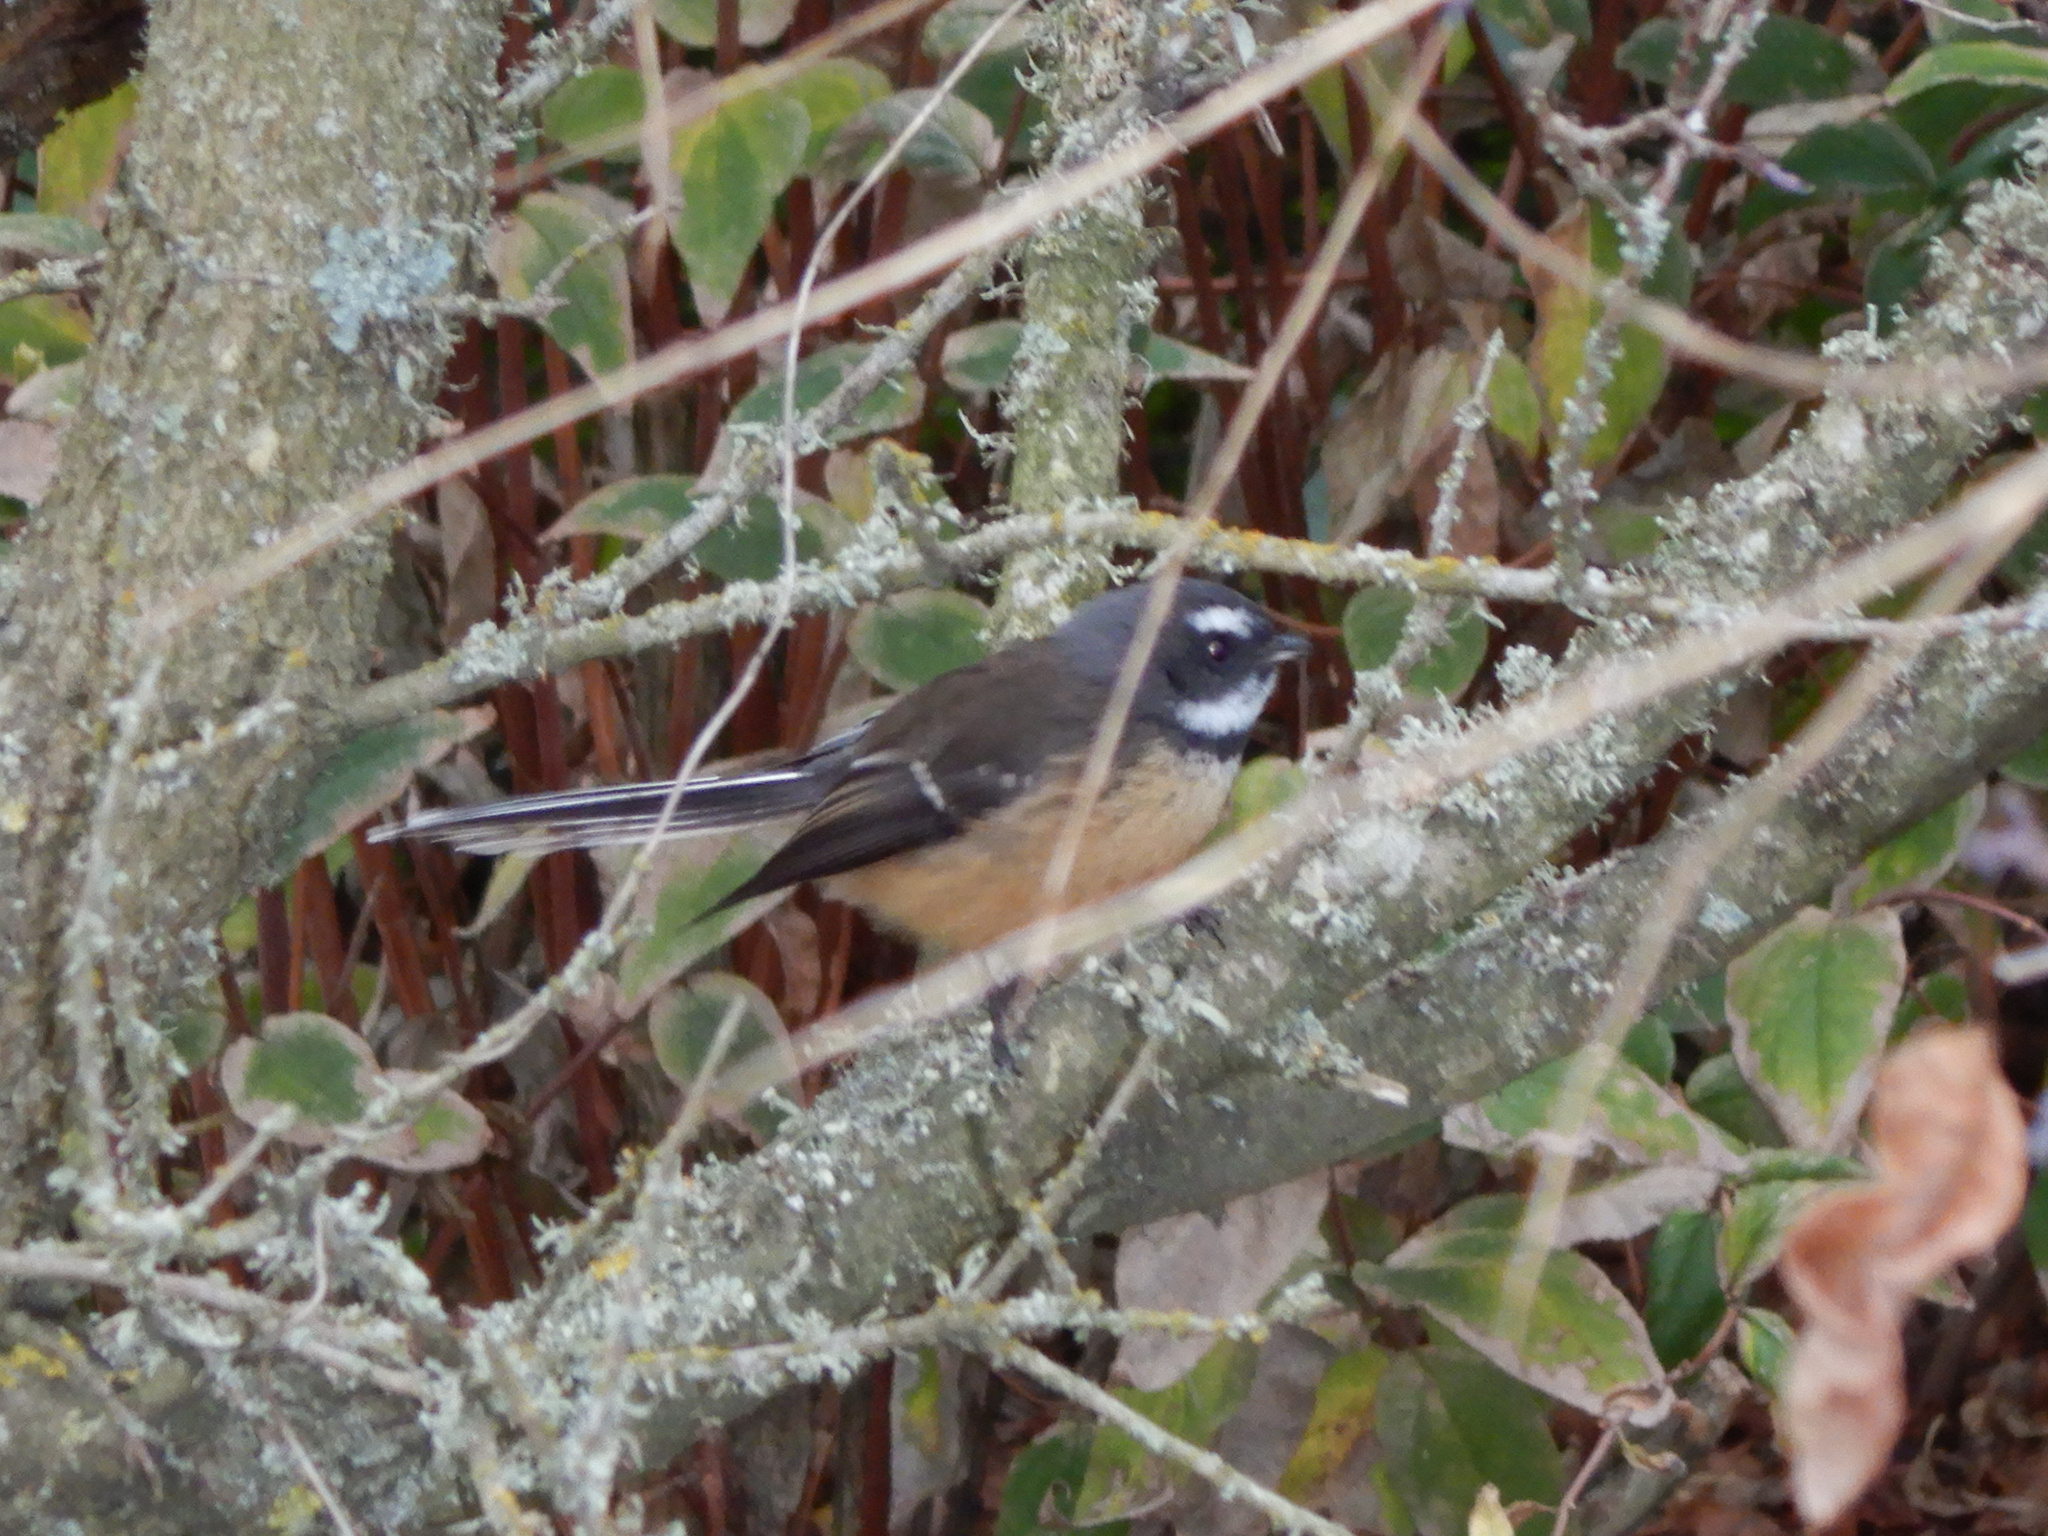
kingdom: Animalia
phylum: Chordata
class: Aves
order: Passeriformes
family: Rhipiduridae
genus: Rhipidura
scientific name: Rhipidura fuliginosa
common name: New zealand fantail
